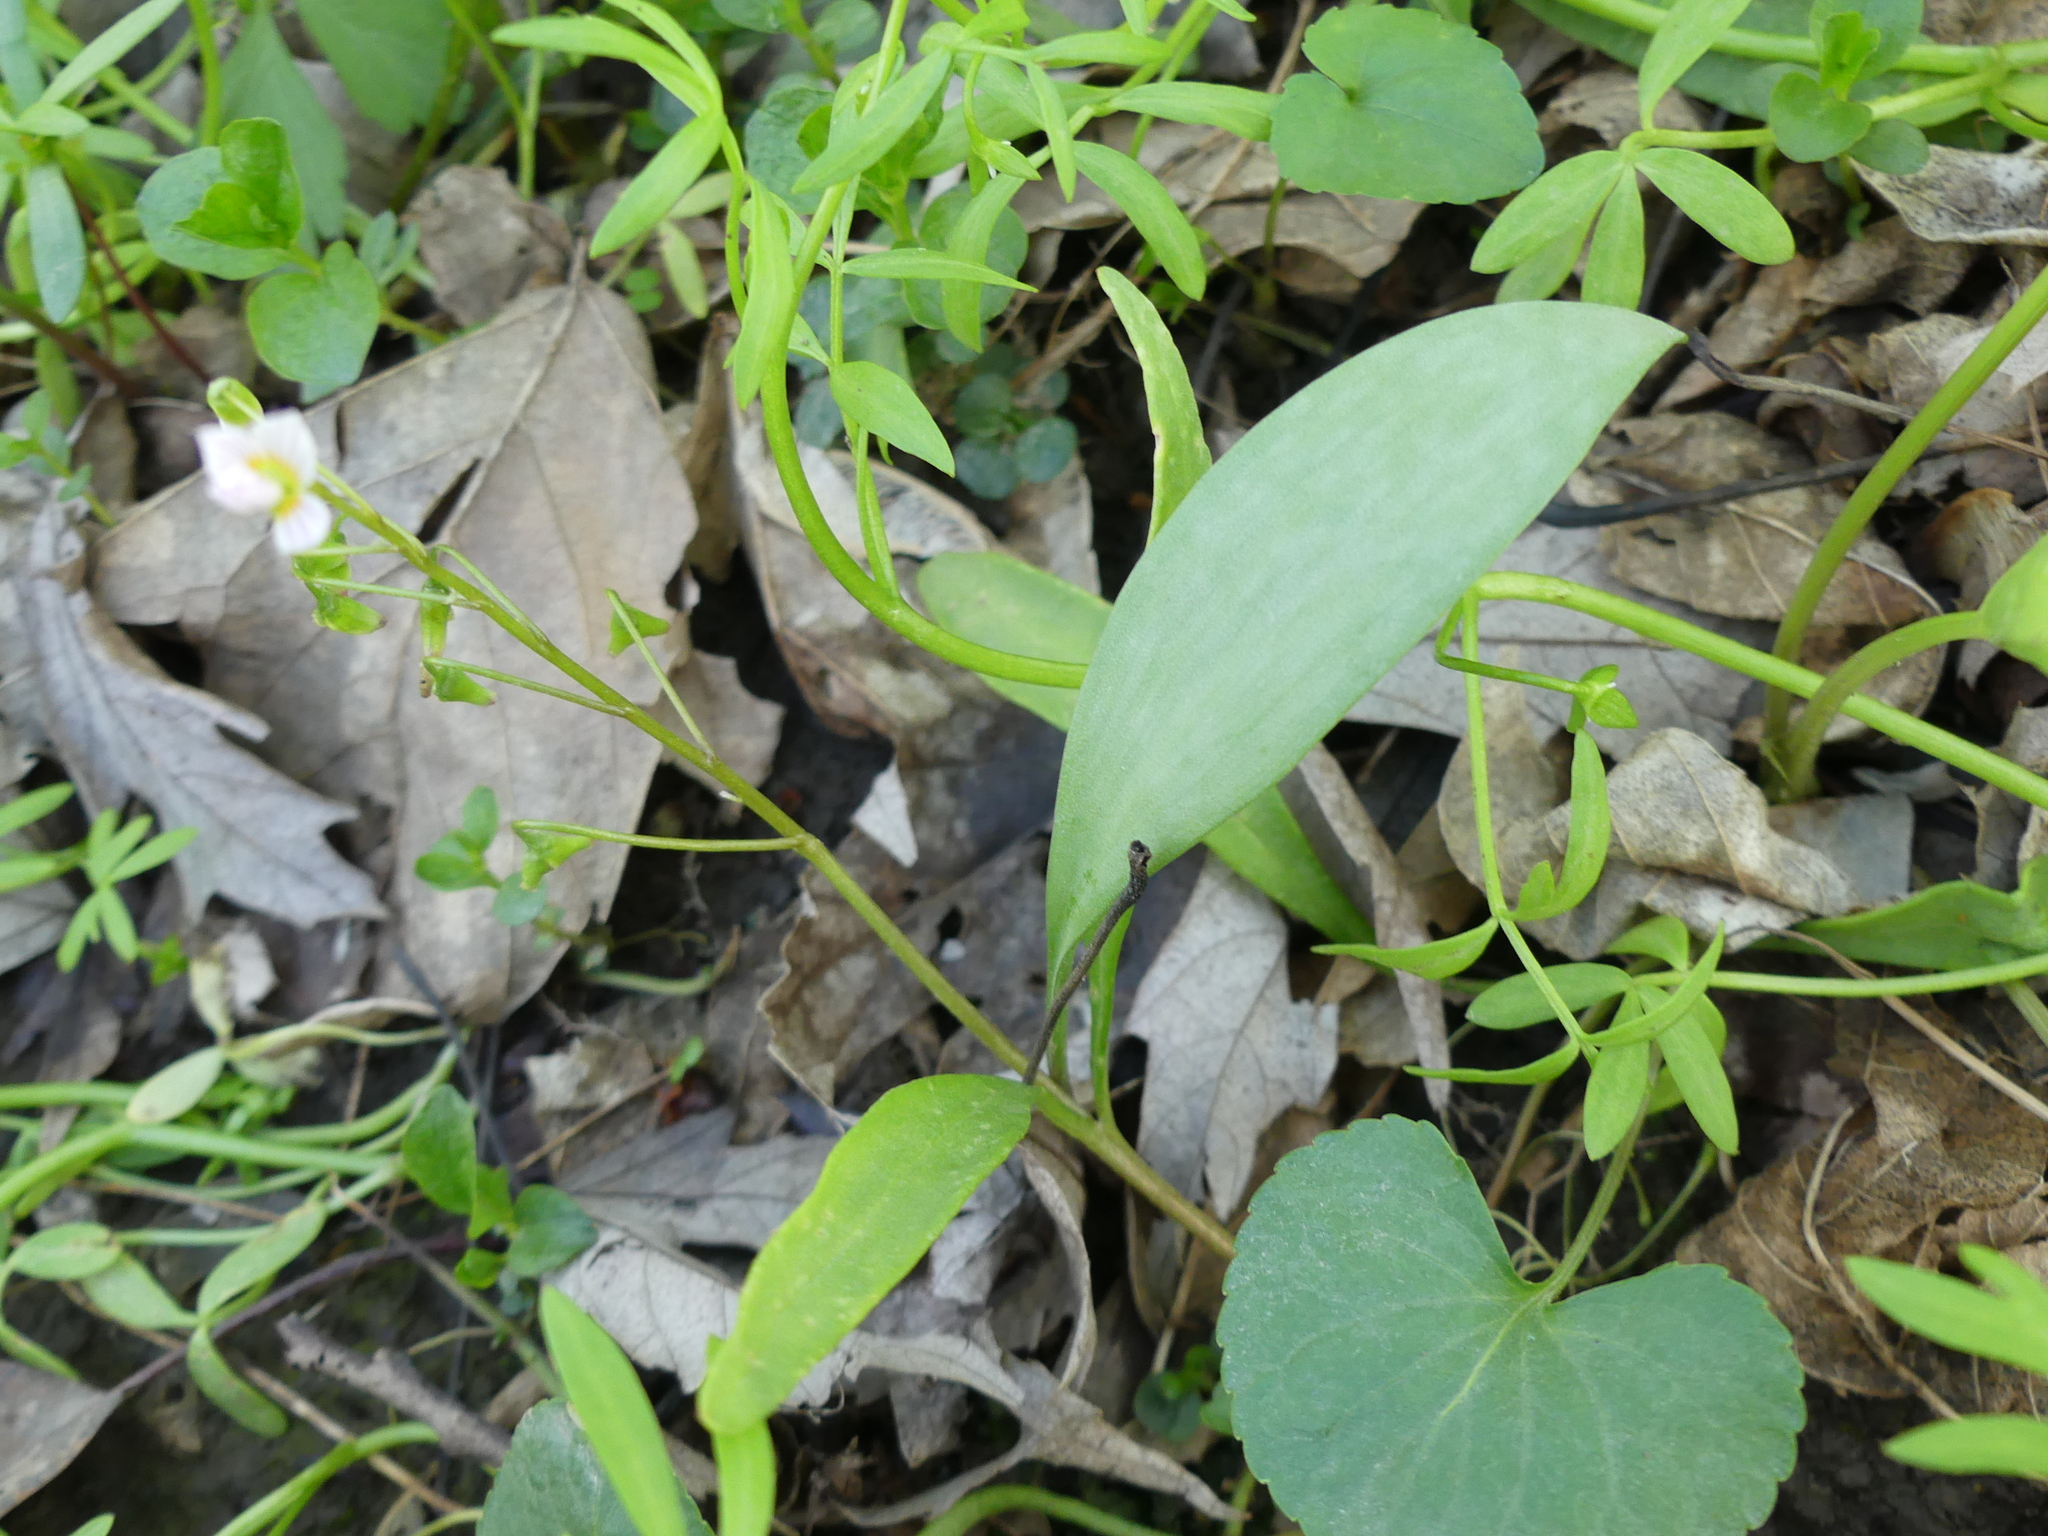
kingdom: Plantae
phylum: Tracheophyta
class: Magnoliopsida
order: Caryophyllales
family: Montiaceae
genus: Claytonia
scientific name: Claytonia virginica
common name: Virginia springbeauty
